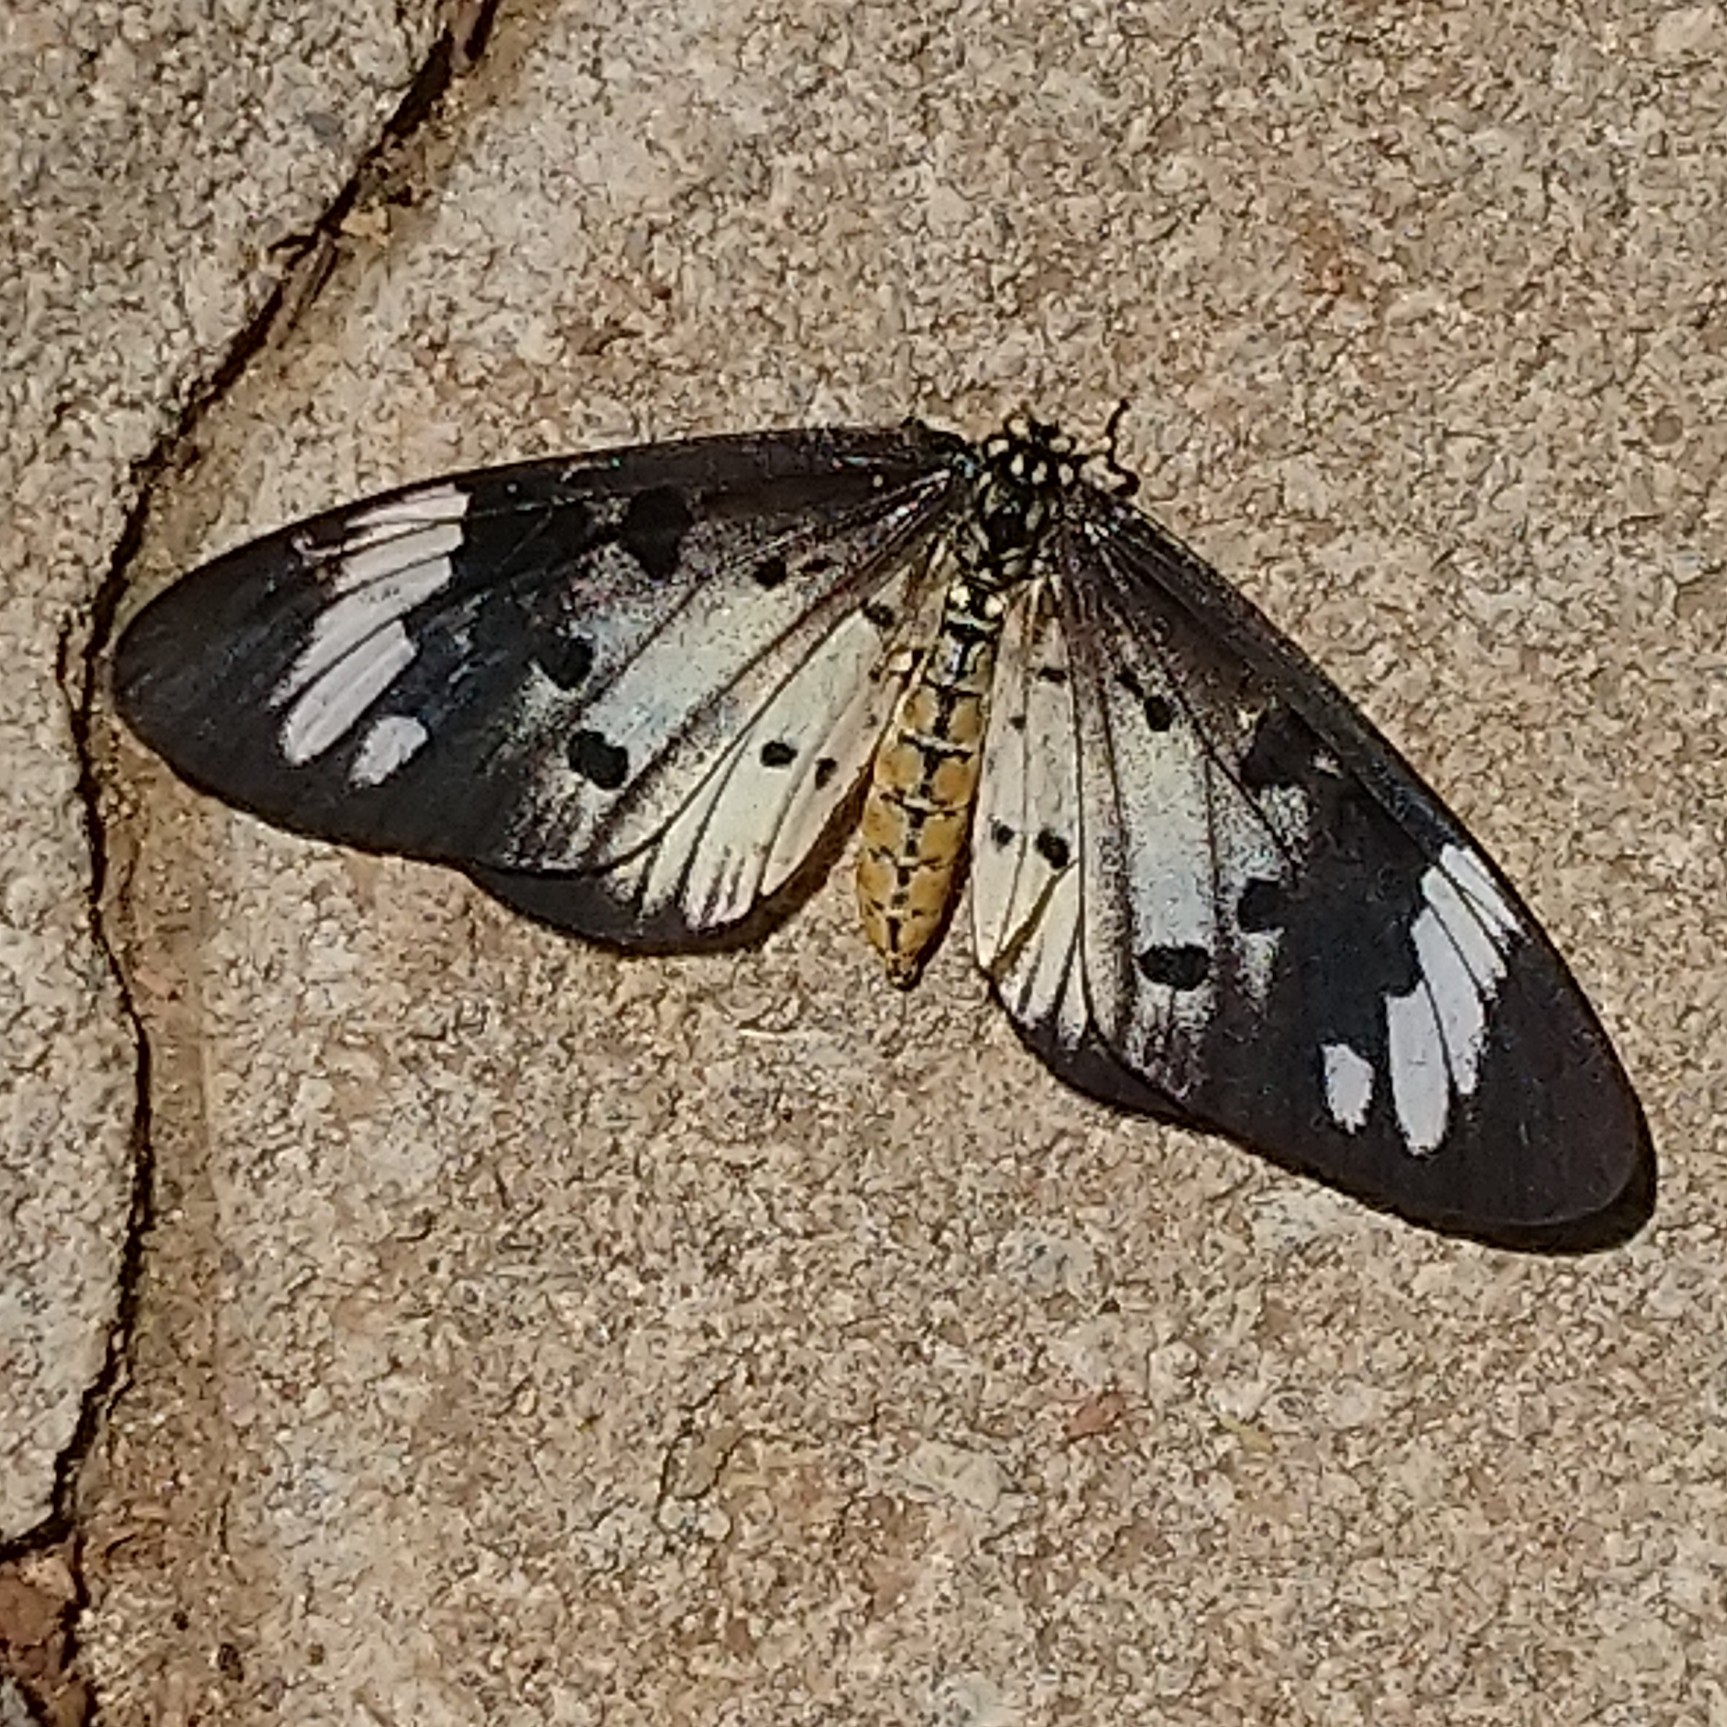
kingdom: Animalia
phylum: Arthropoda
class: Insecta
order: Lepidoptera
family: Nymphalidae
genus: Acraea
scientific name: Acraea Telchinia encedon
